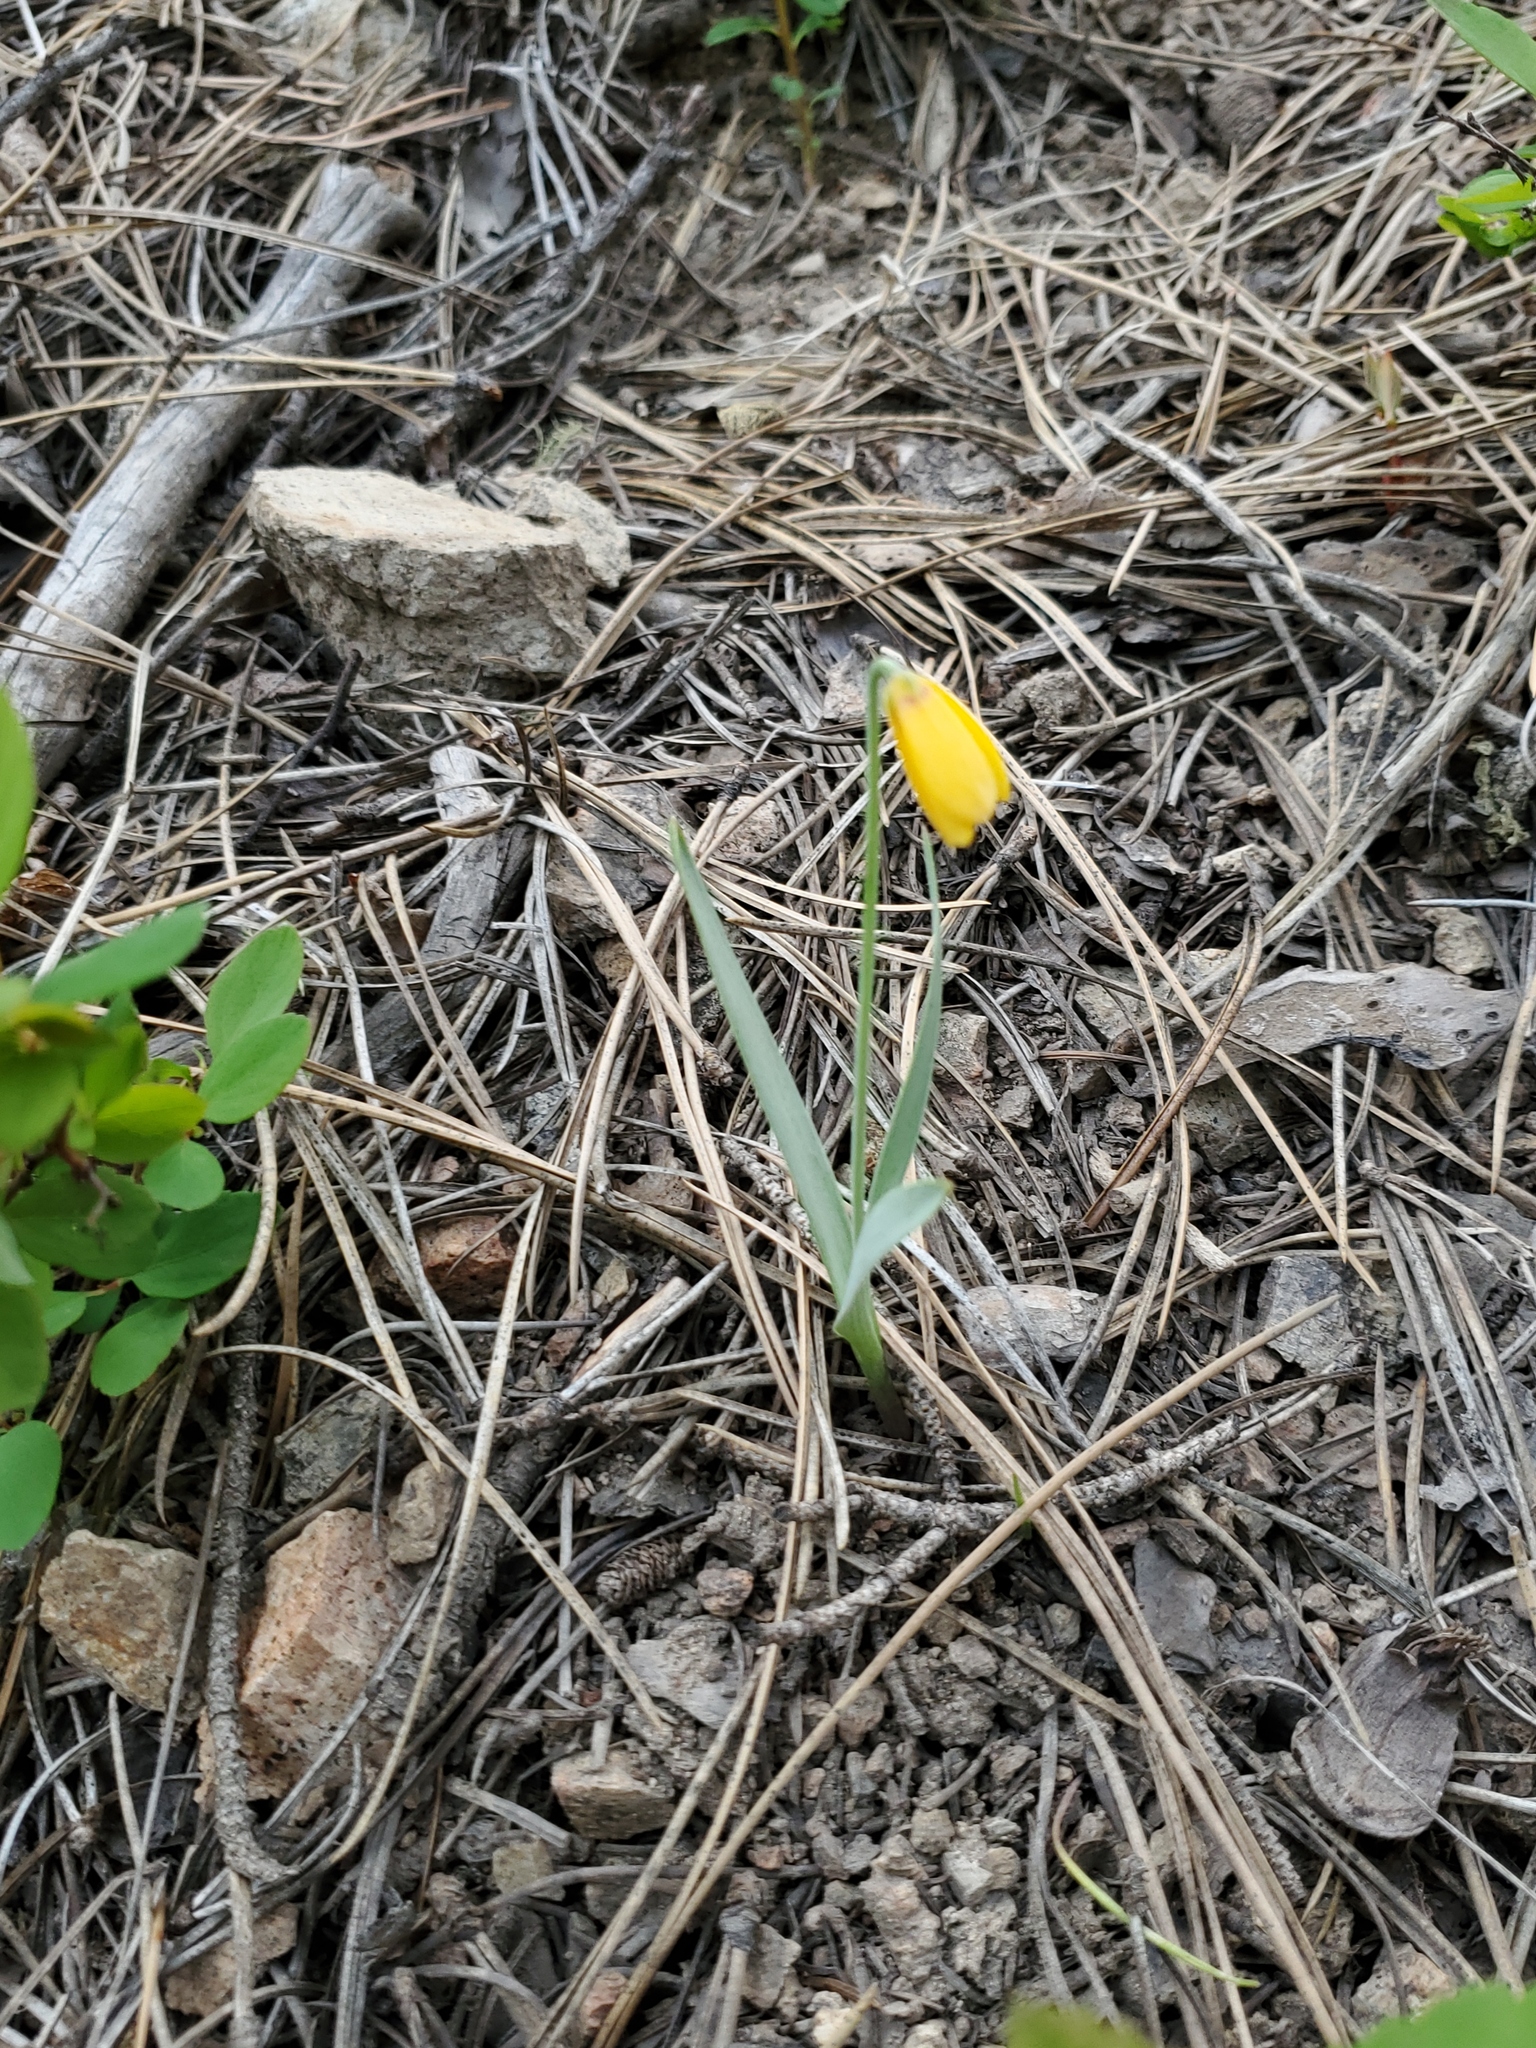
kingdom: Plantae
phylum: Tracheophyta
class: Liliopsida
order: Liliales
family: Liliaceae
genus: Fritillaria
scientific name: Fritillaria pudica
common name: Yellow fritillary
